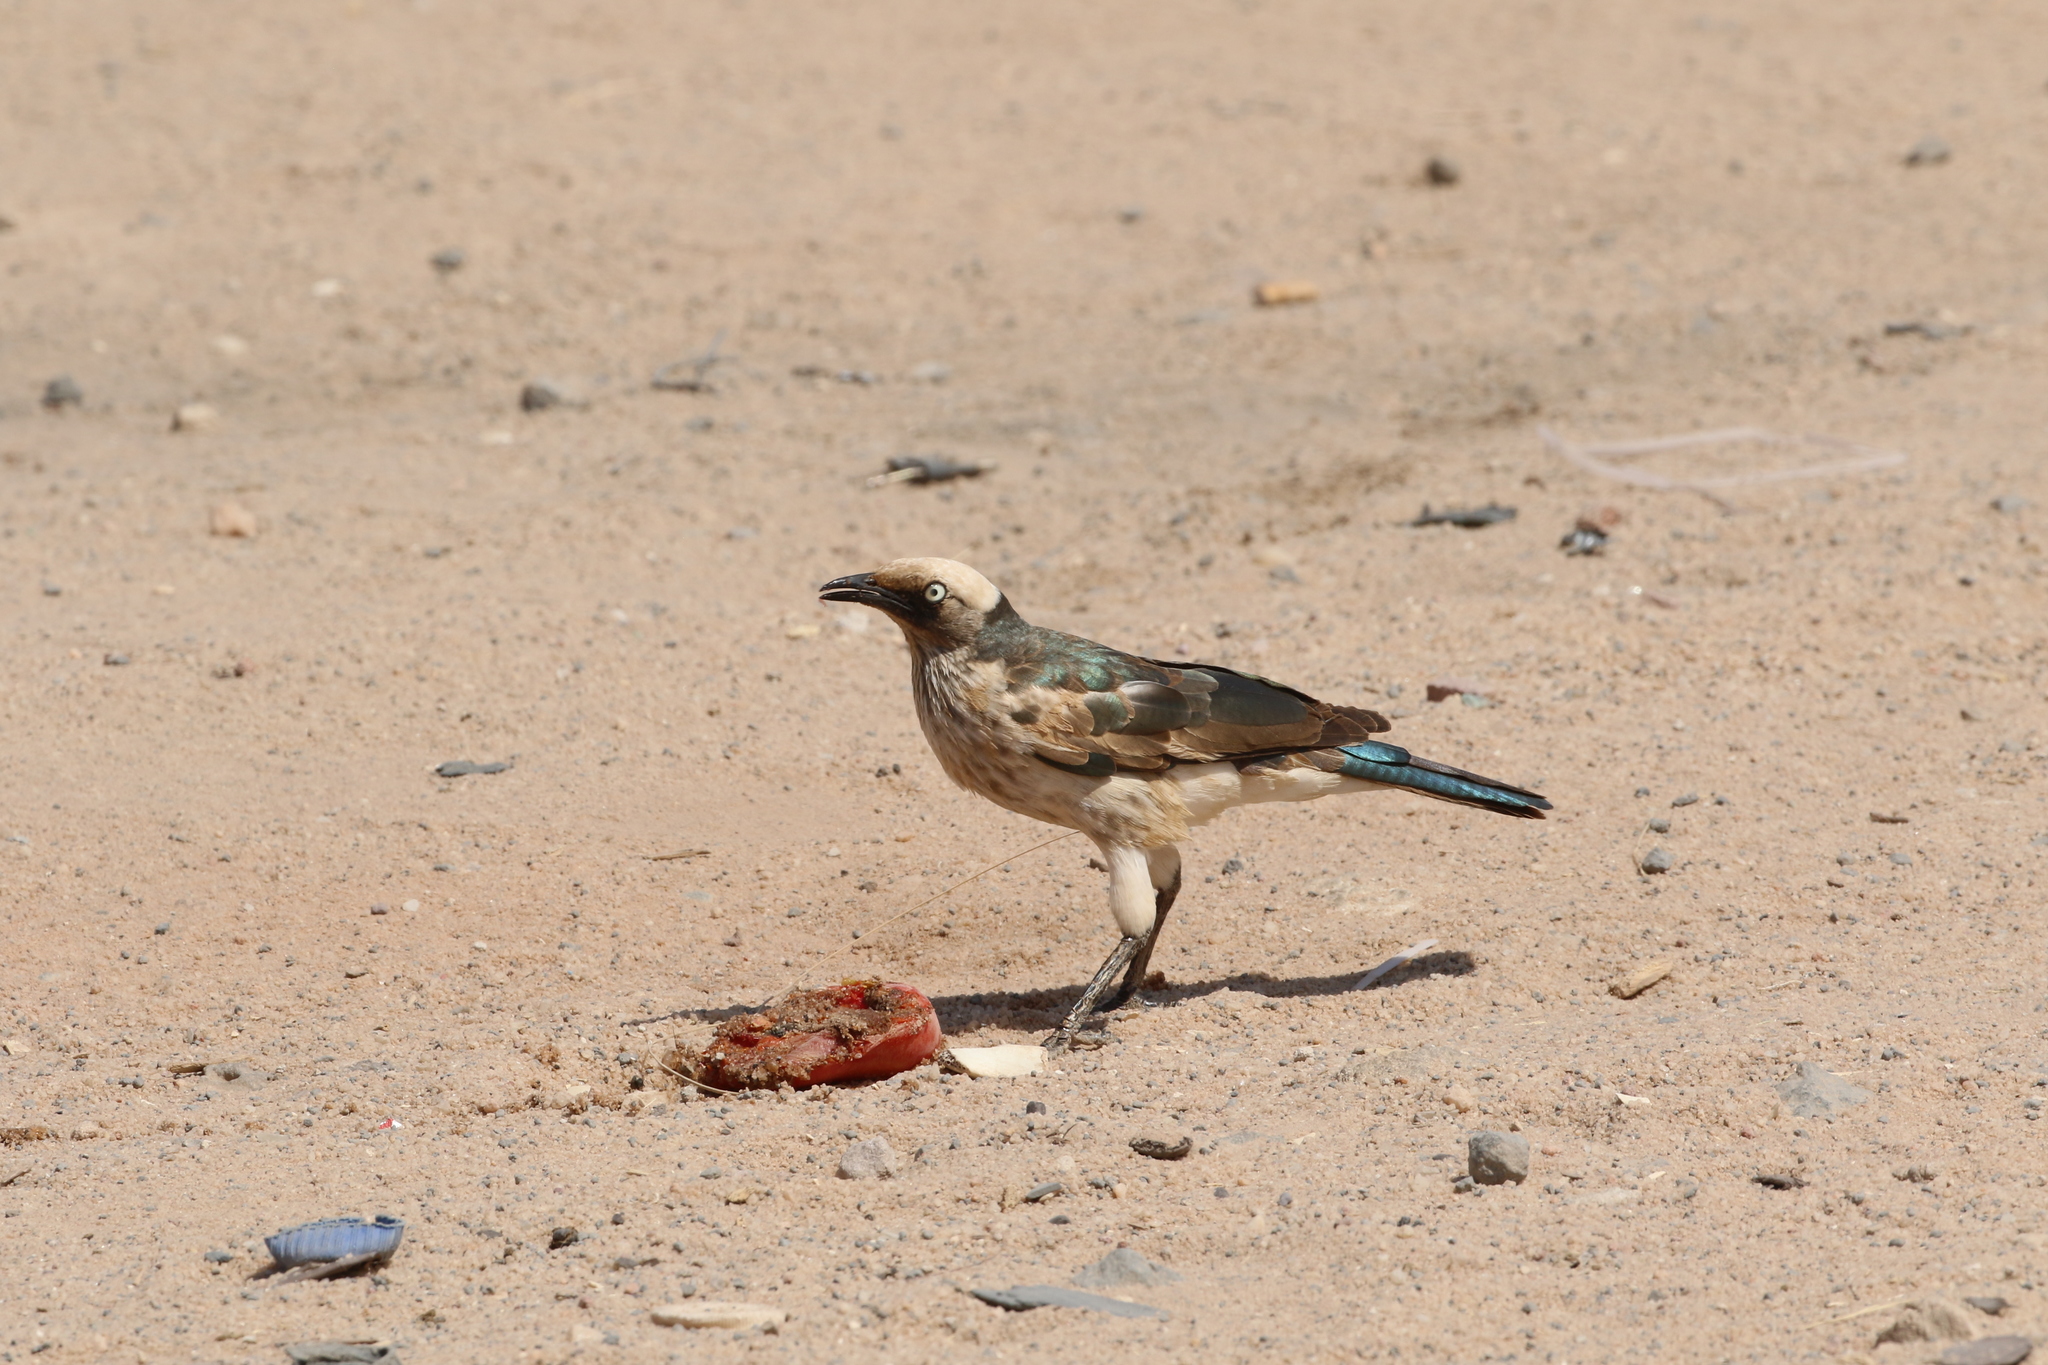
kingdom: Animalia
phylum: Chordata
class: Aves
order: Passeriformes
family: Sturnidae
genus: Lamprotornis
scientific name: Lamprotornis albicapillus
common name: White-crowned starling
